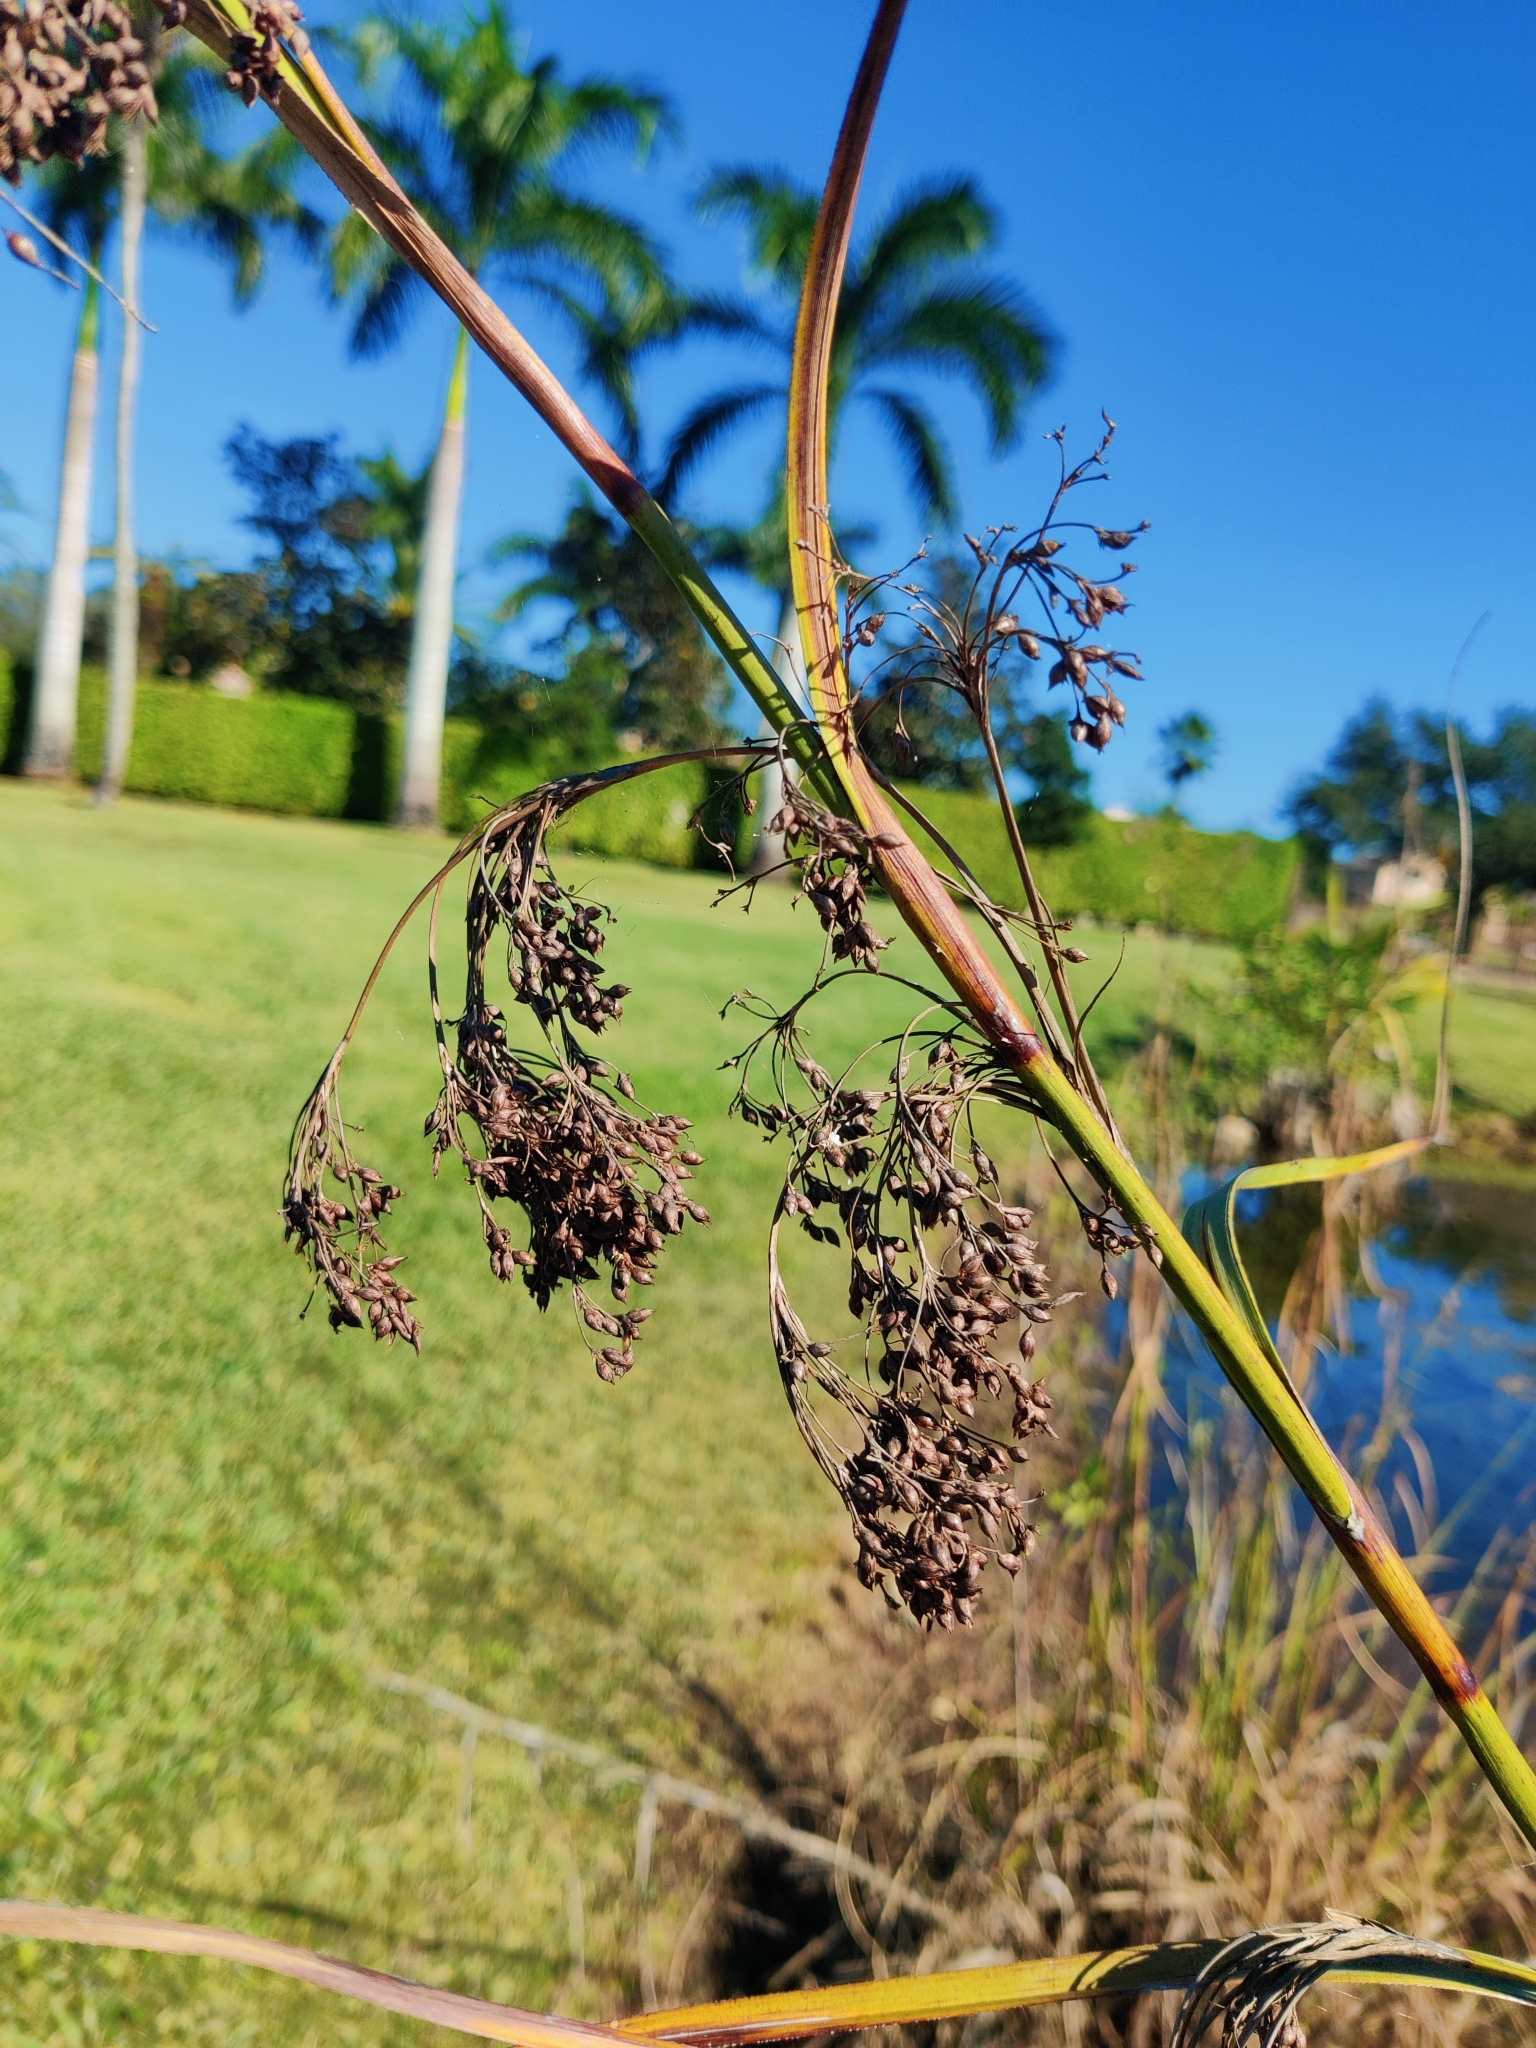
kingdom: Plantae
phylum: Tracheophyta
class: Liliopsida
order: Poales
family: Cyperaceae
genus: Cladium
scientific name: Cladium mariscus
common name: Great fen-sedge
